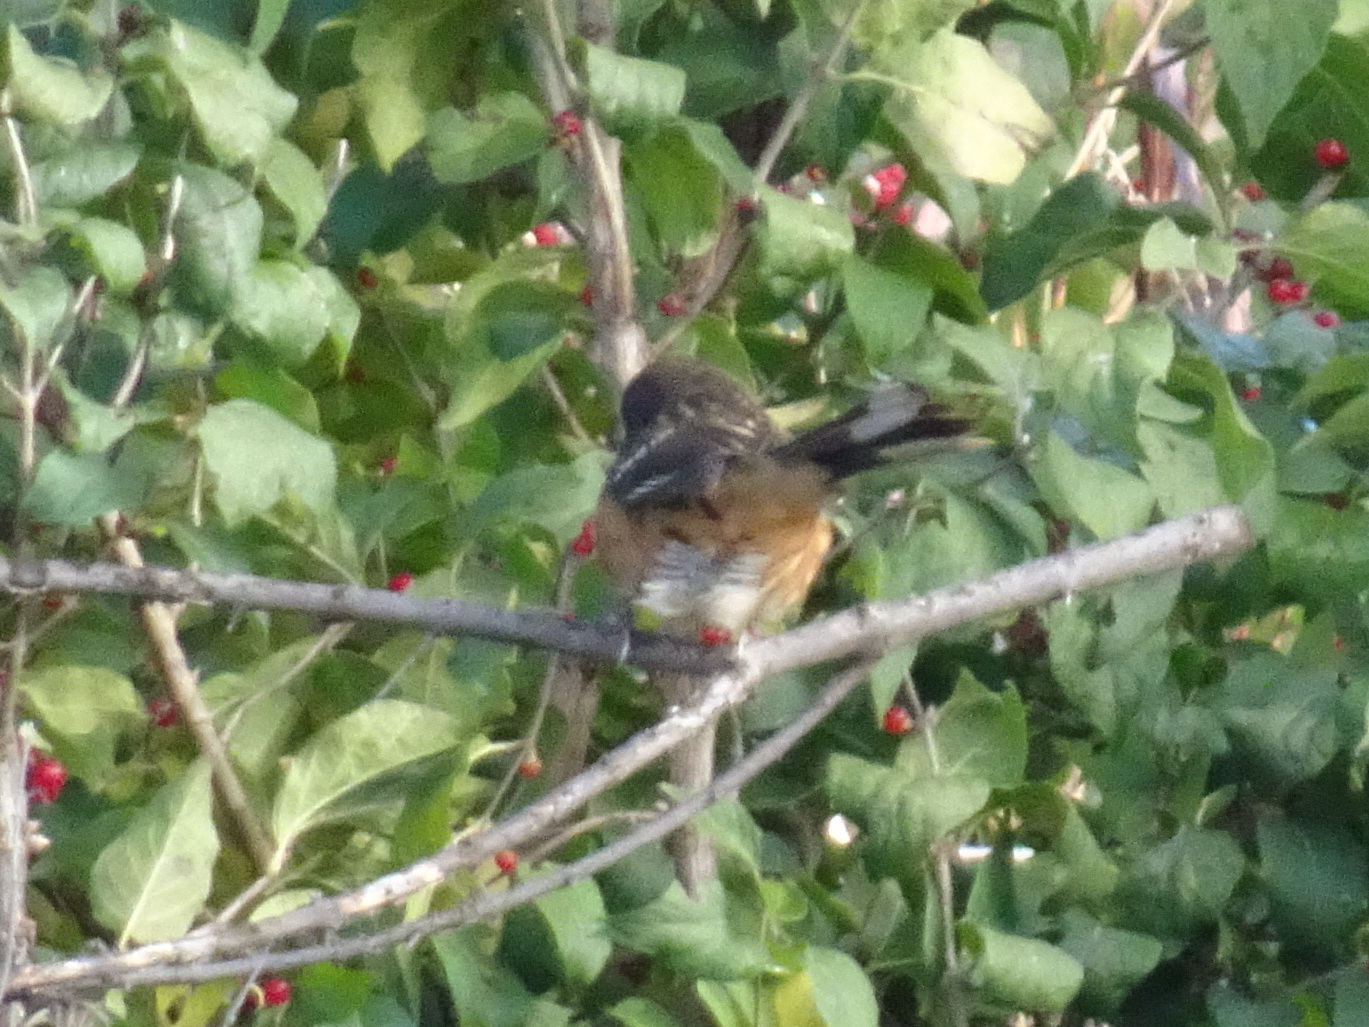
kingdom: Animalia
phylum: Chordata
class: Aves
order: Passeriformes
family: Passerellidae
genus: Pipilo
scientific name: Pipilo maculatus
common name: Spotted towhee
